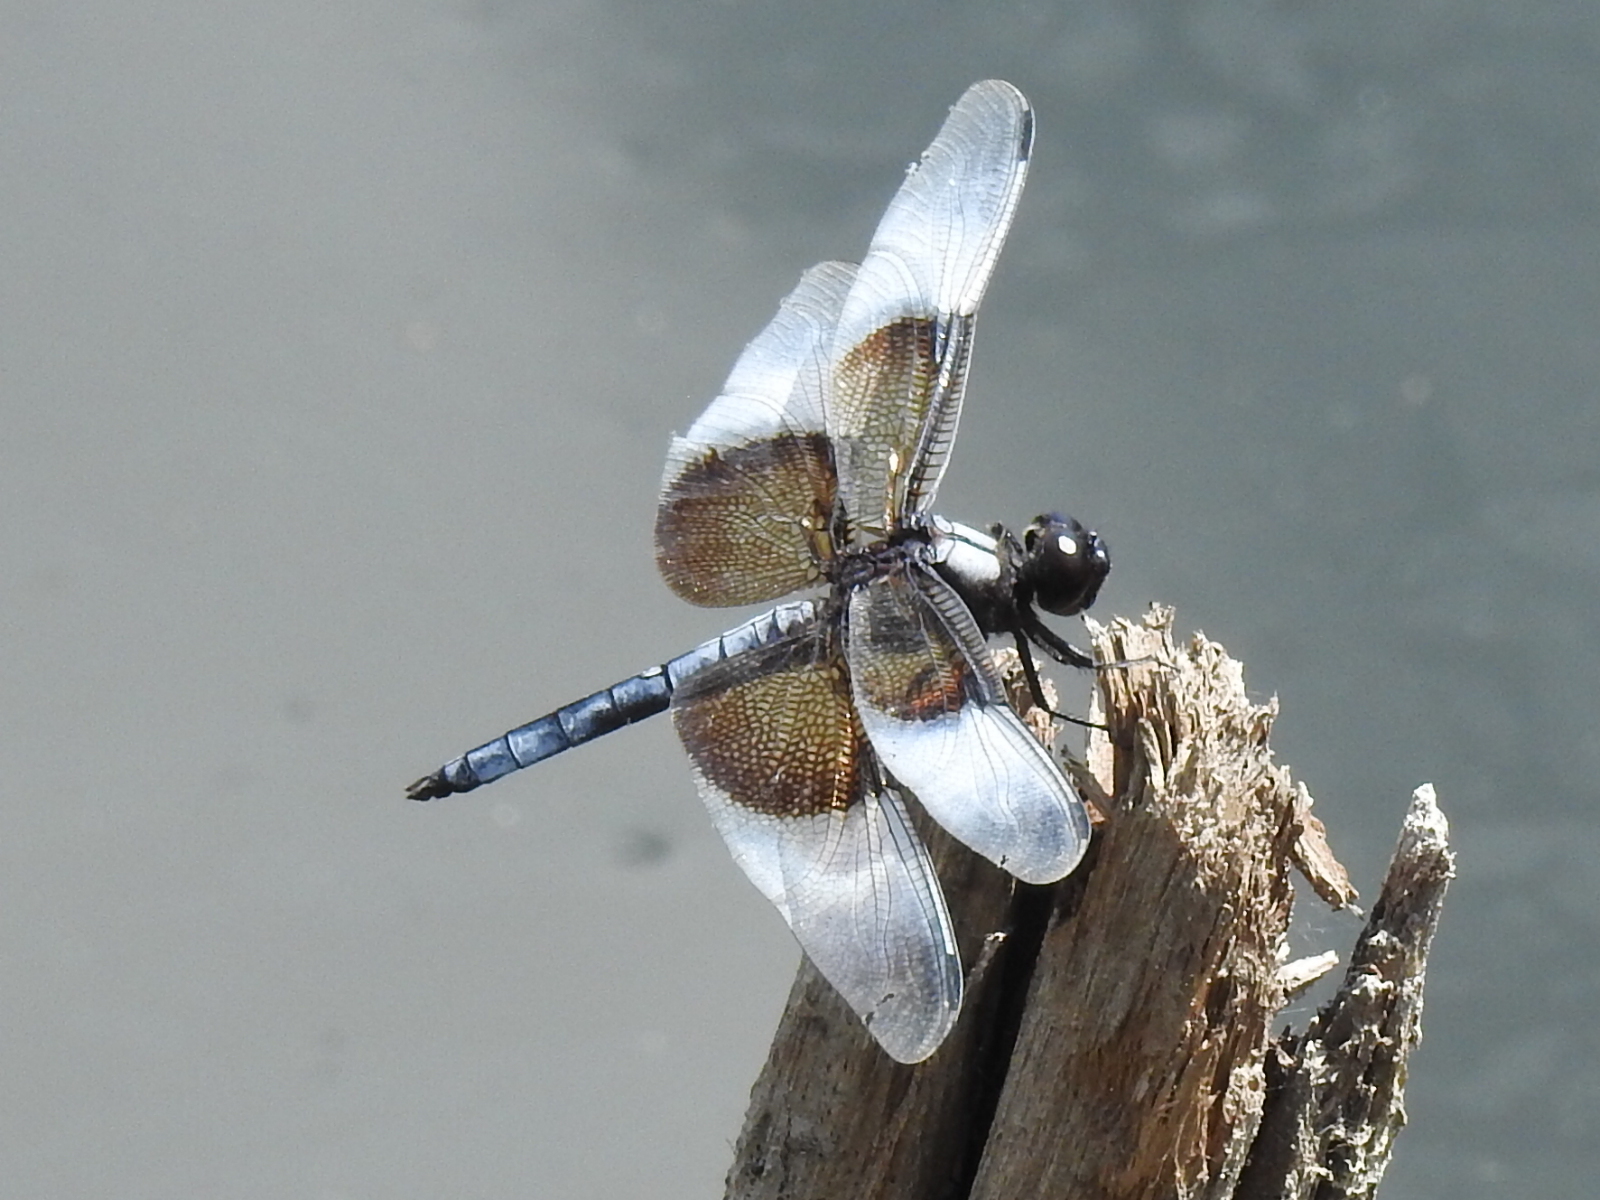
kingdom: Animalia
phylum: Arthropoda
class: Insecta
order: Odonata
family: Libellulidae
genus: Libellula
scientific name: Libellula luctuosa
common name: Widow skimmer
